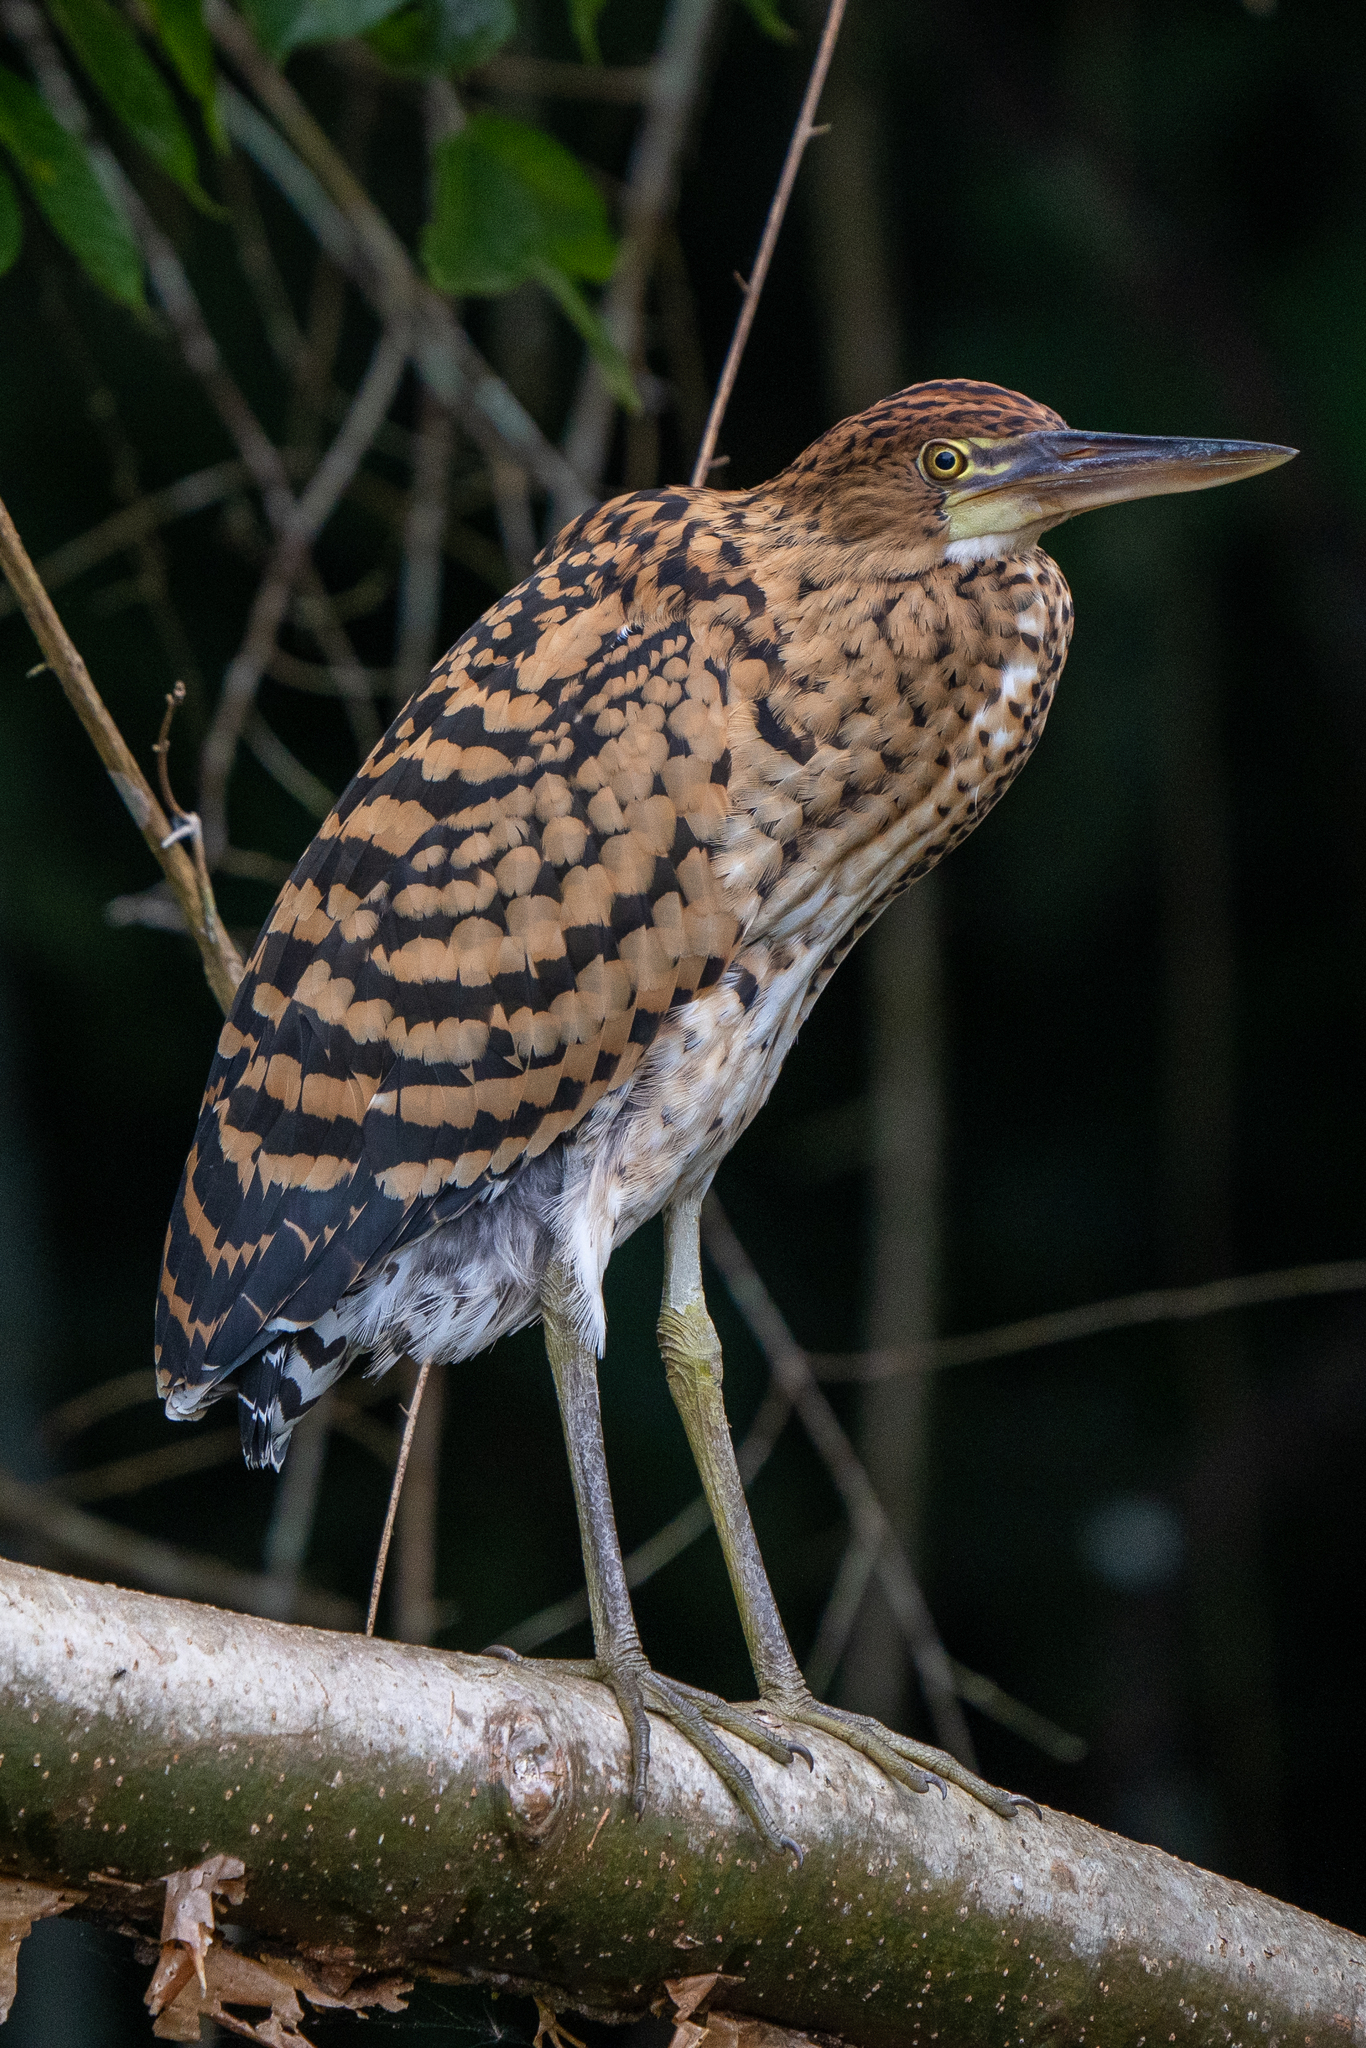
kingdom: Animalia
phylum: Chordata
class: Aves
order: Pelecaniformes
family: Ardeidae
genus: Tigrisoma
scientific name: Tigrisoma lineatum
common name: Rufescent tiger-heron
